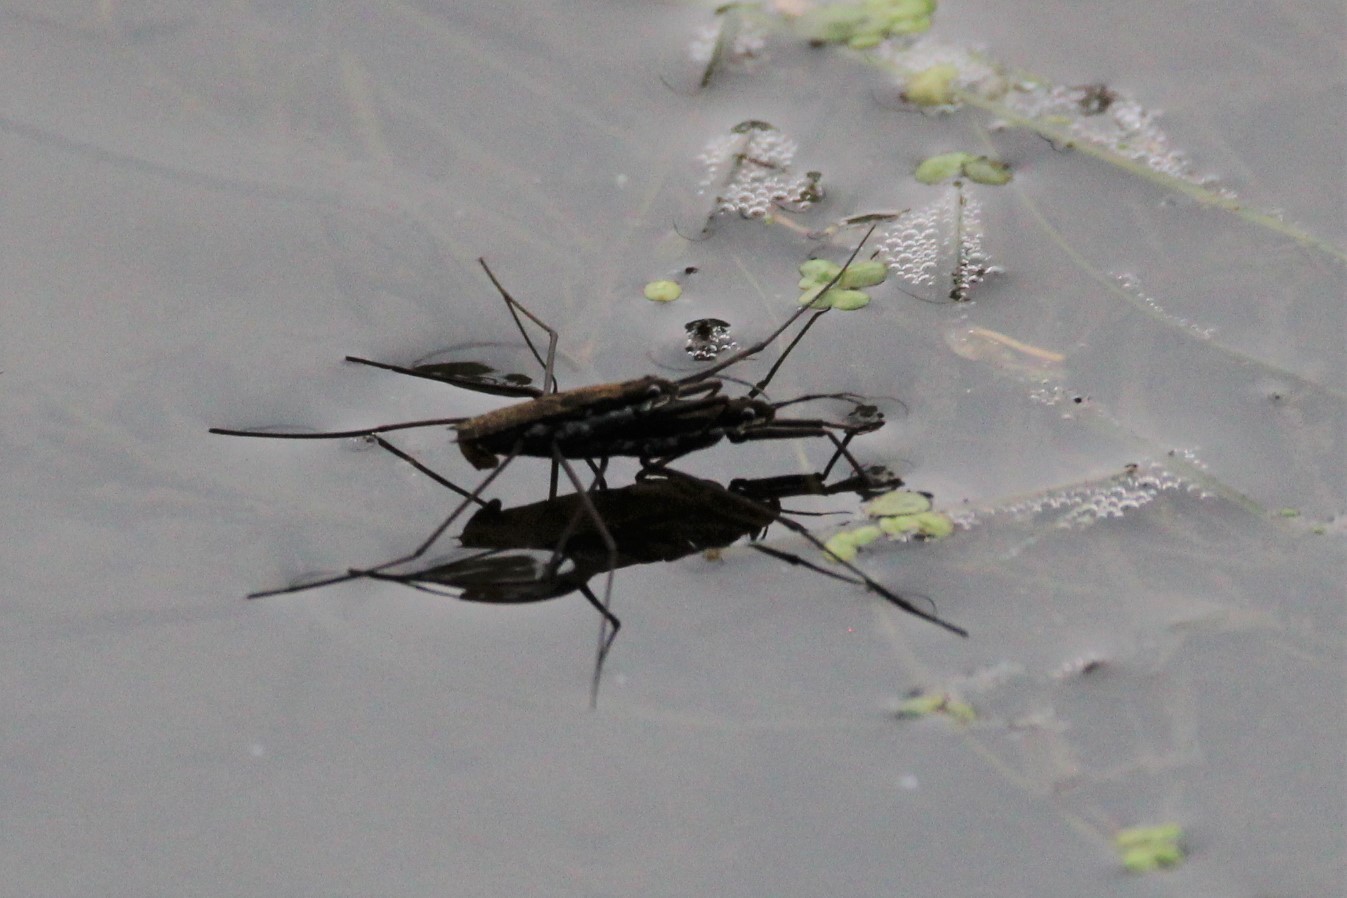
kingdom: Animalia
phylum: Arthropoda
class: Insecta
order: Hemiptera
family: Gerridae
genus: Aquarius
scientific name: Aquarius remigis
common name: Common water strider
